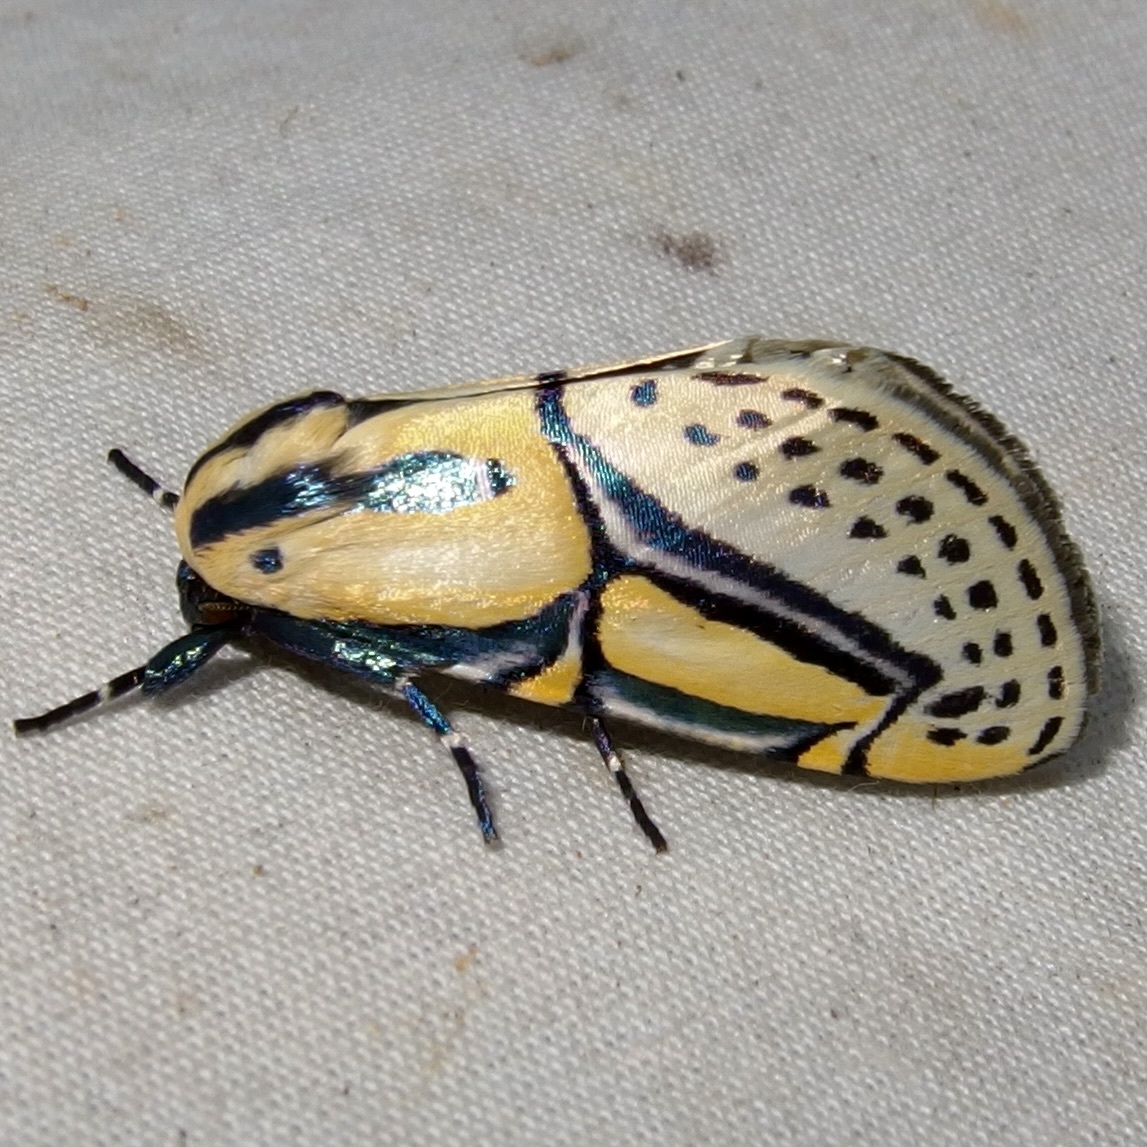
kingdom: Animalia
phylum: Arthropoda
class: Insecta
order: Lepidoptera
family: Erebidae
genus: Diphthera
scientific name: Diphthera festiva
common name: Hieroglyphic moth
